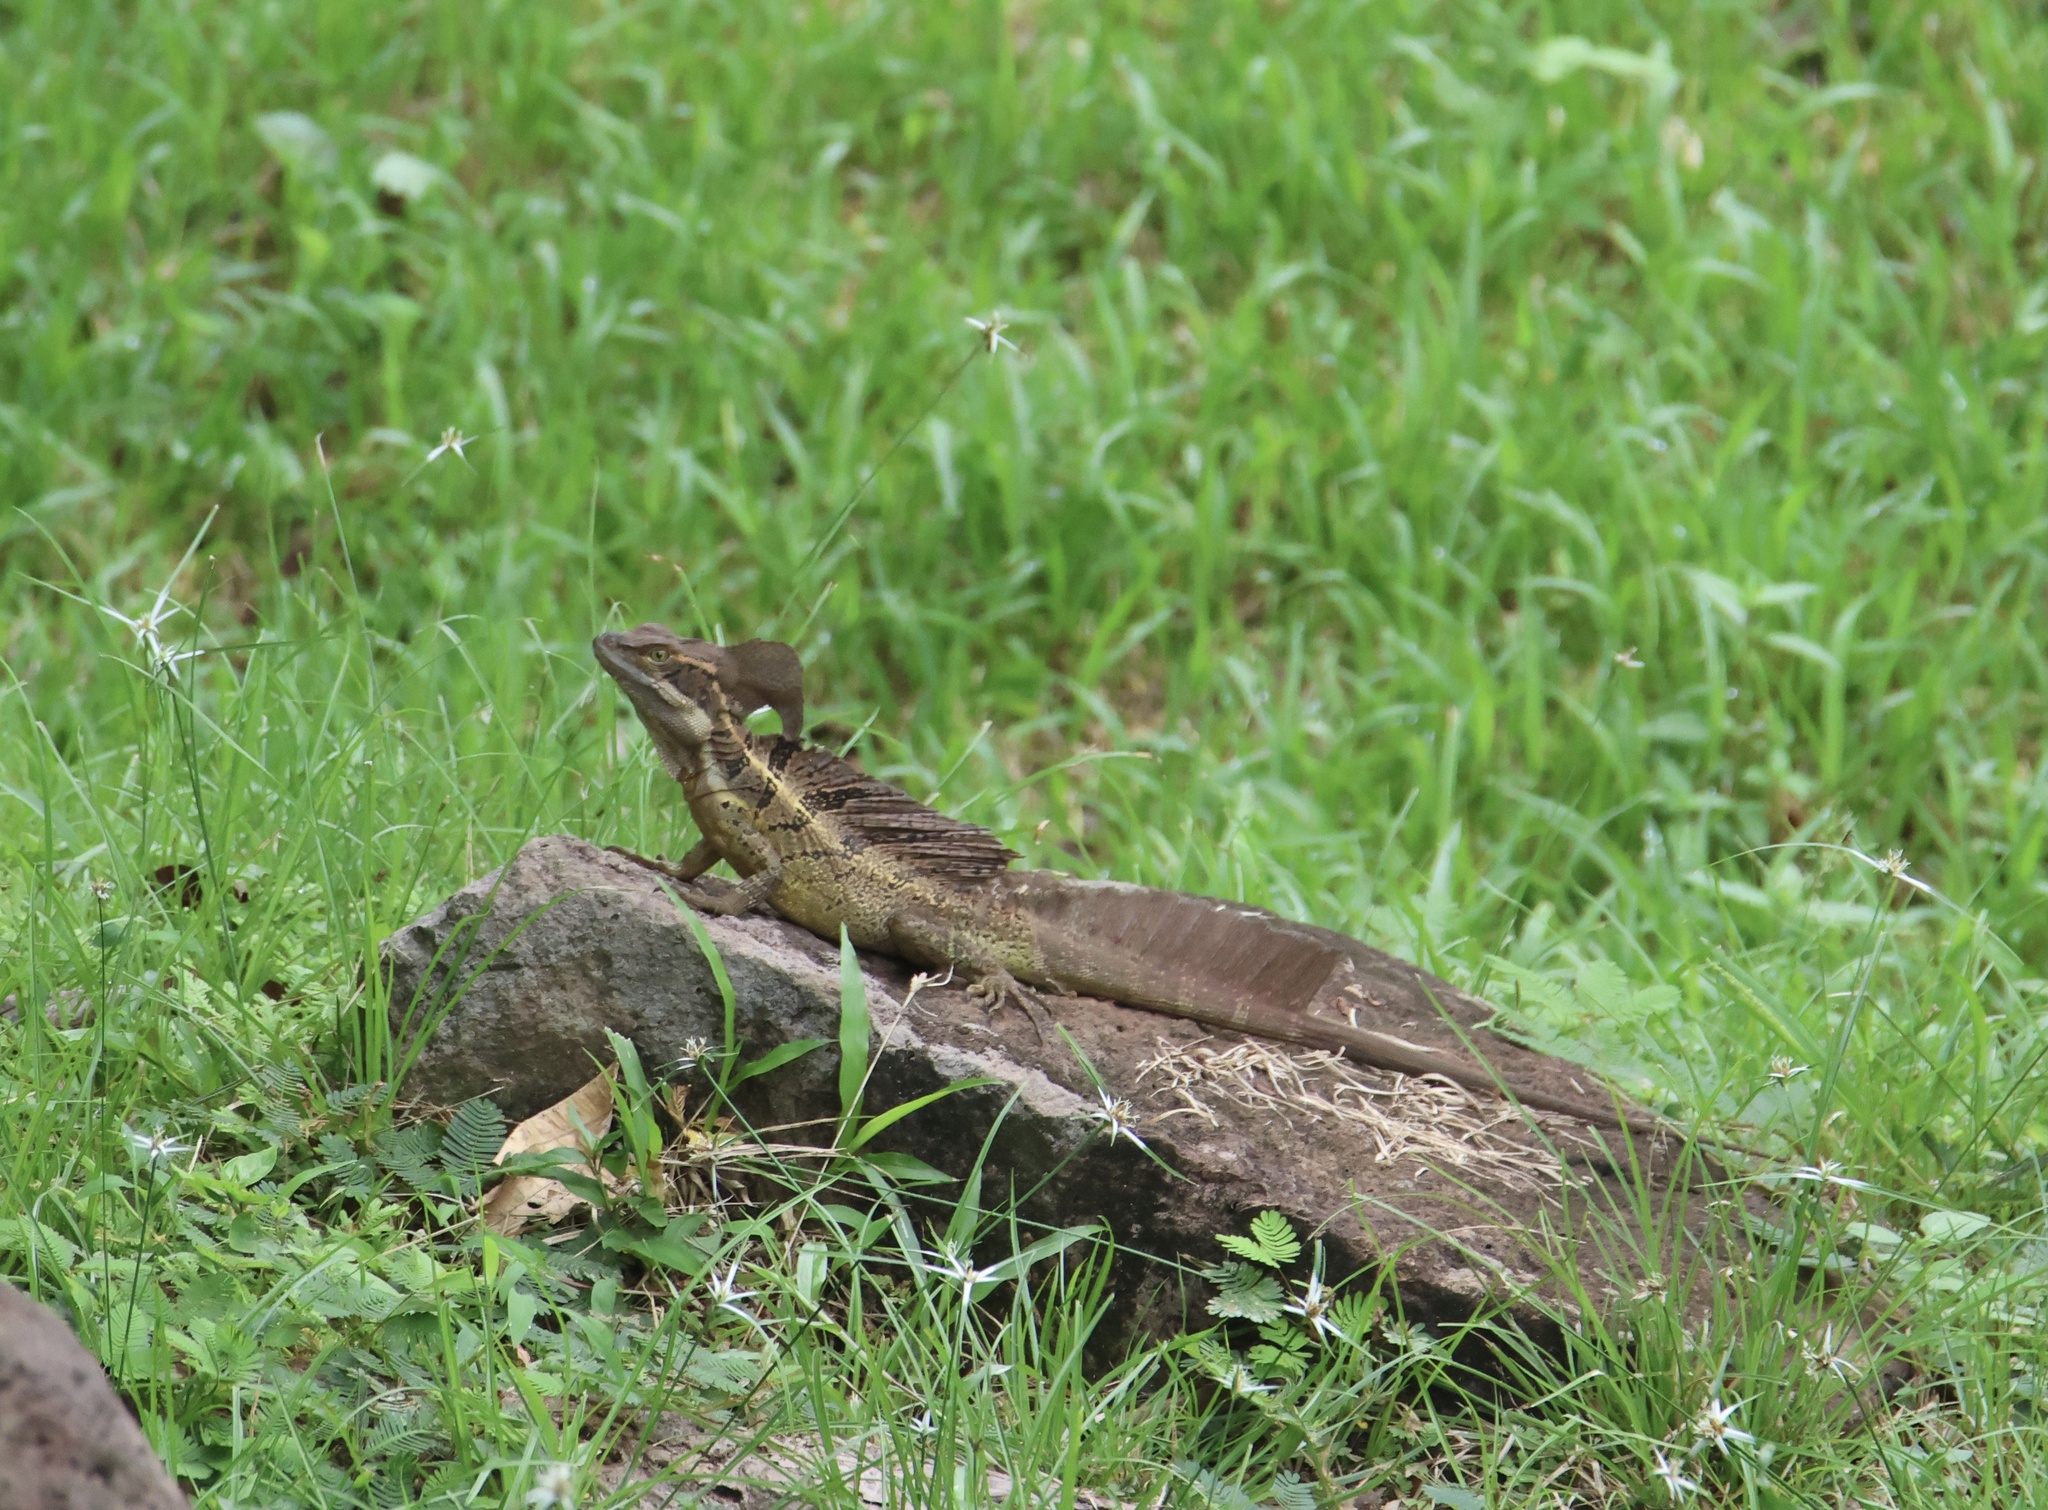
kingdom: Animalia
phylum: Chordata
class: Squamata
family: Corytophanidae
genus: Basiliscus
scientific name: Basiliscus basiliscus
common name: Common basilisk
